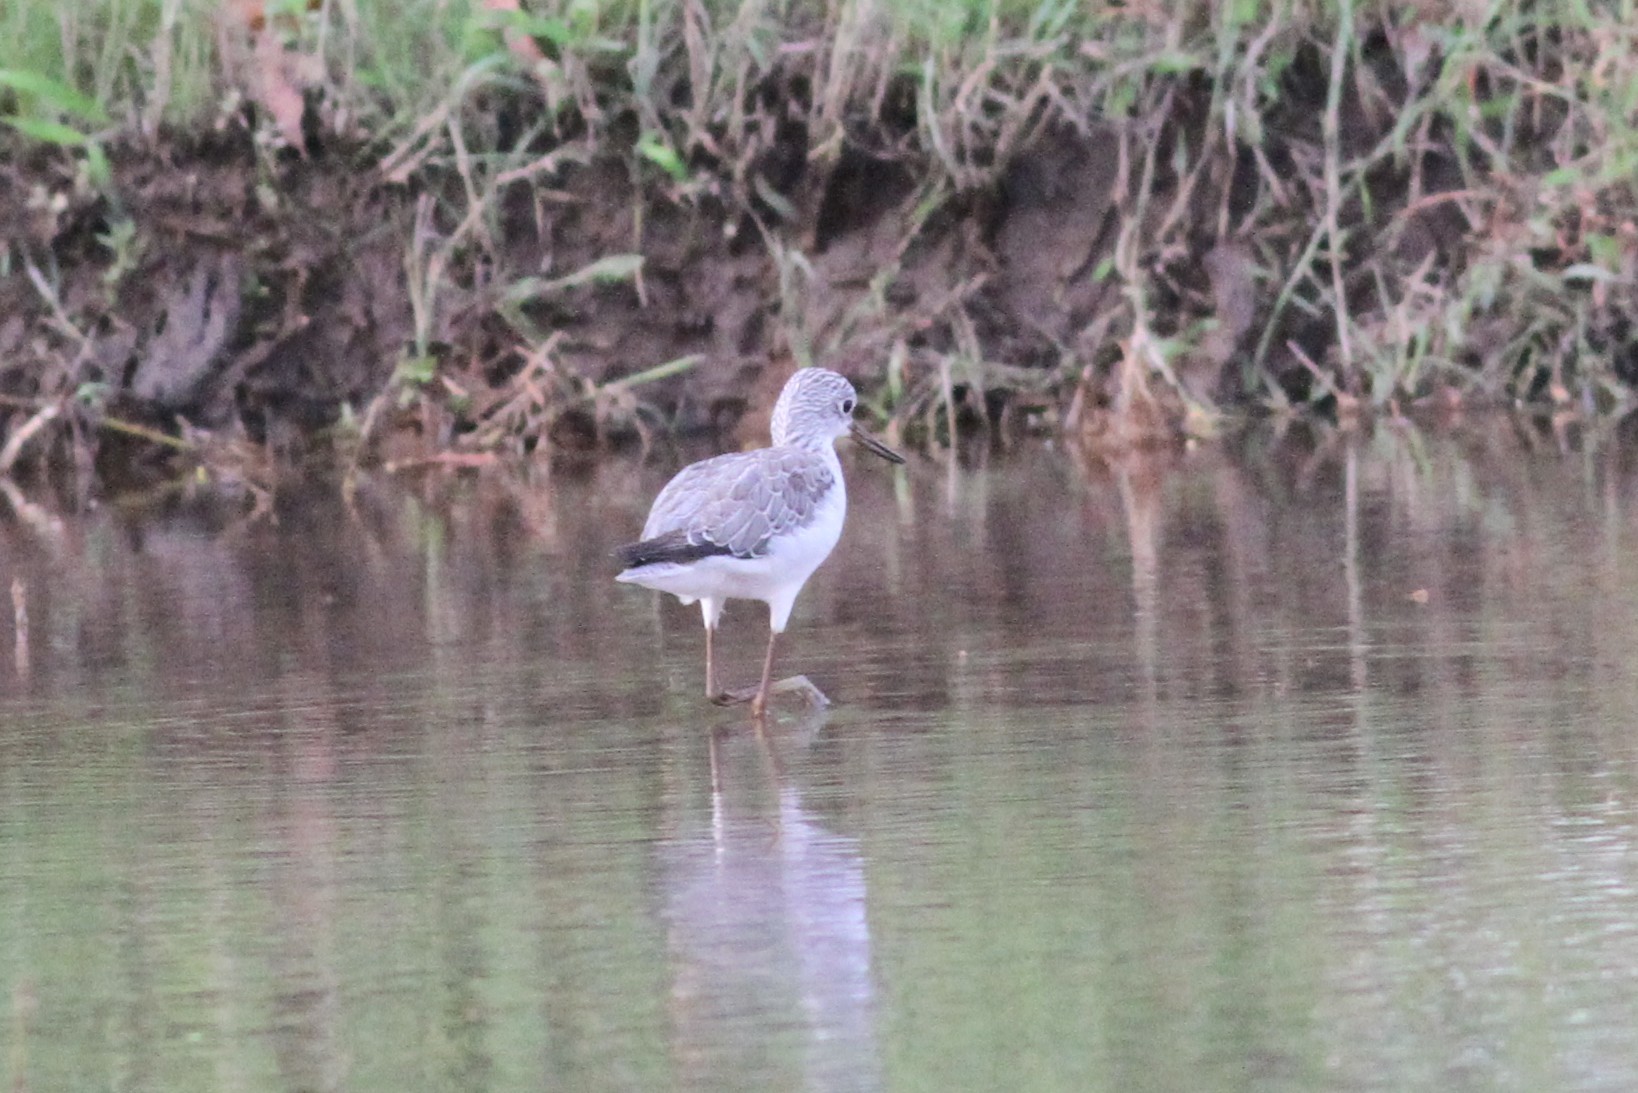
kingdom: Animalia
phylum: Chordata
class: Aves
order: Charadriiformes
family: Scolopacidae
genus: Tringa
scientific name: Tringa nebularia
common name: Common greenshank
